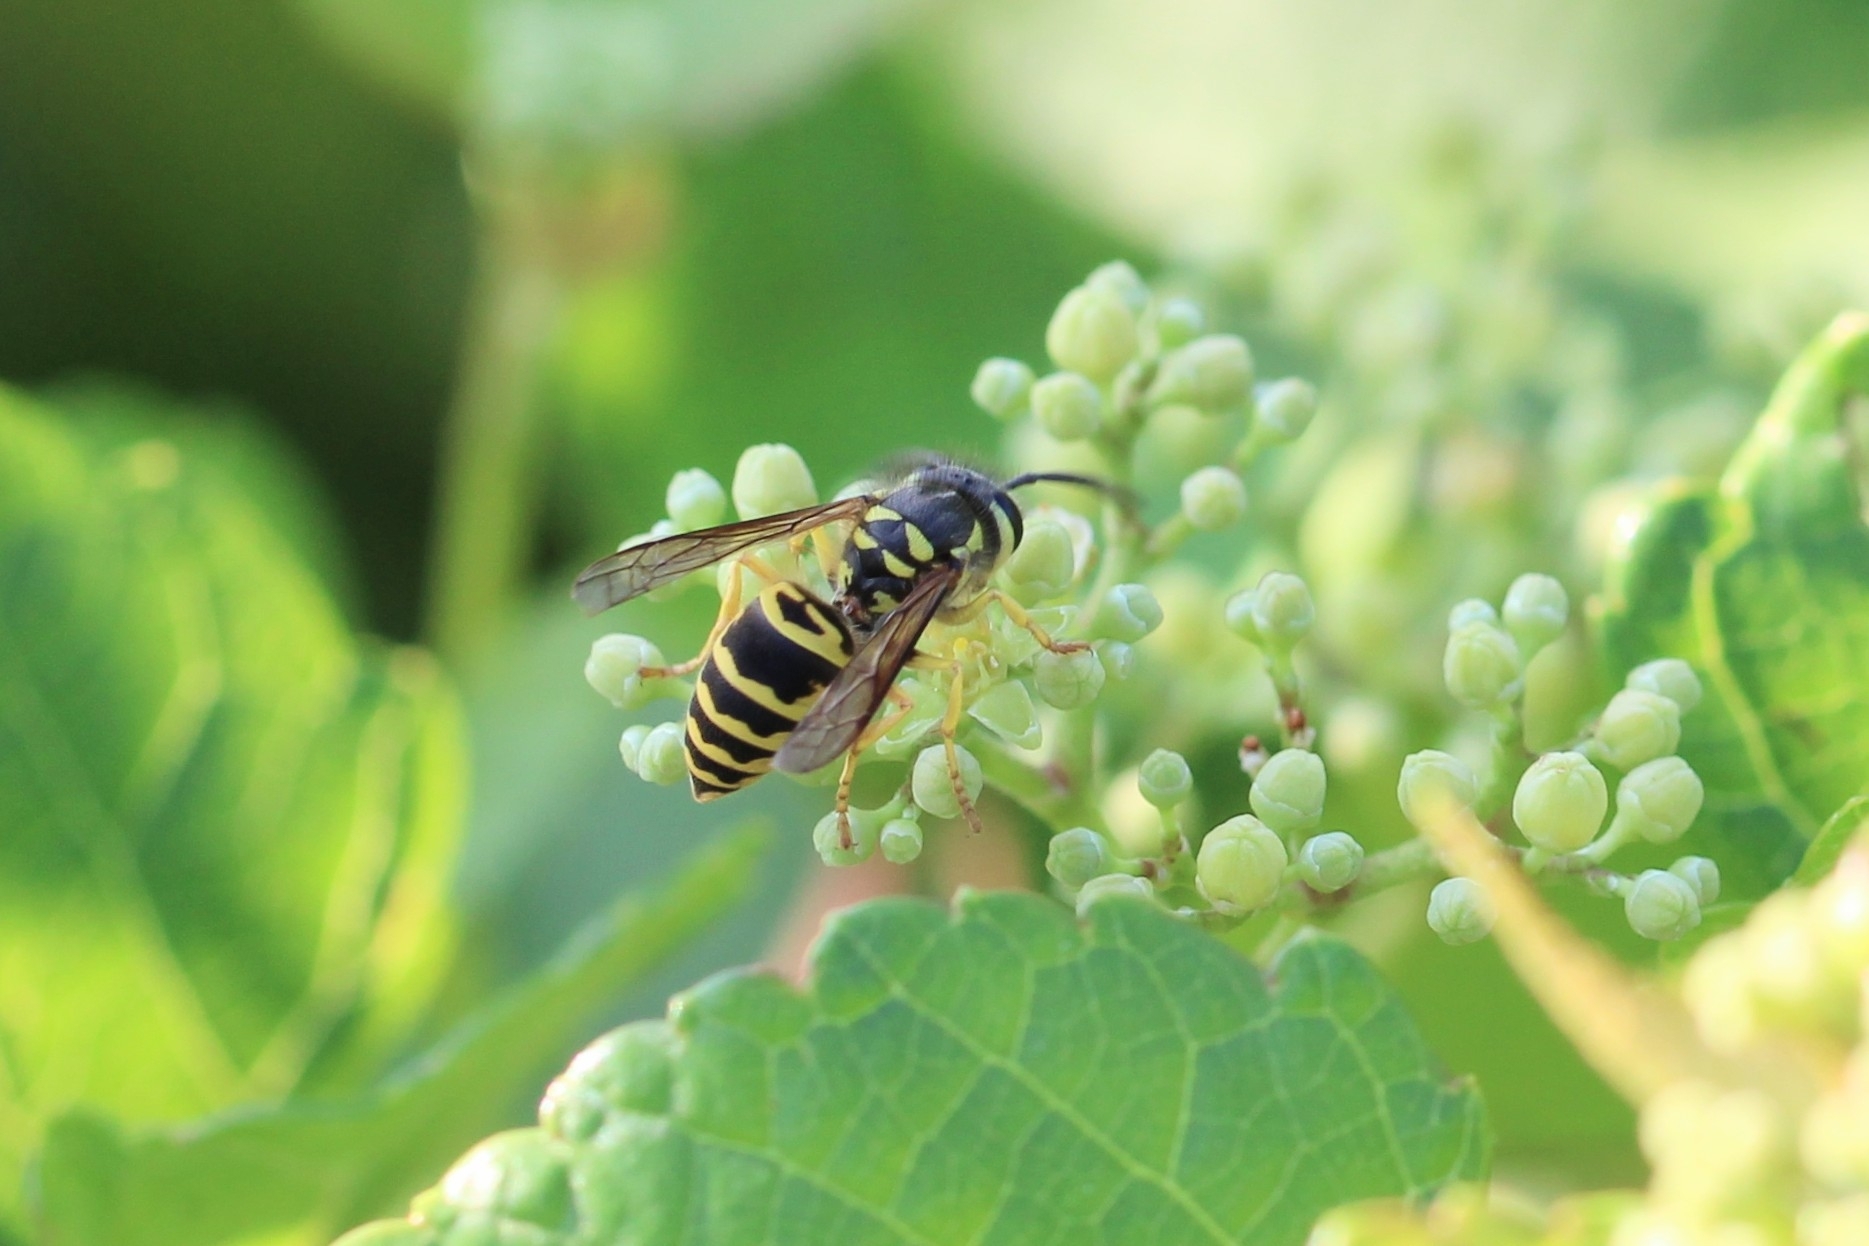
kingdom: Animalia
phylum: Arthropoda
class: Insecta
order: Hymenoptera
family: Vespidae
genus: Vespula
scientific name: Vespula maculifrons
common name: Eastern yellowjacket
